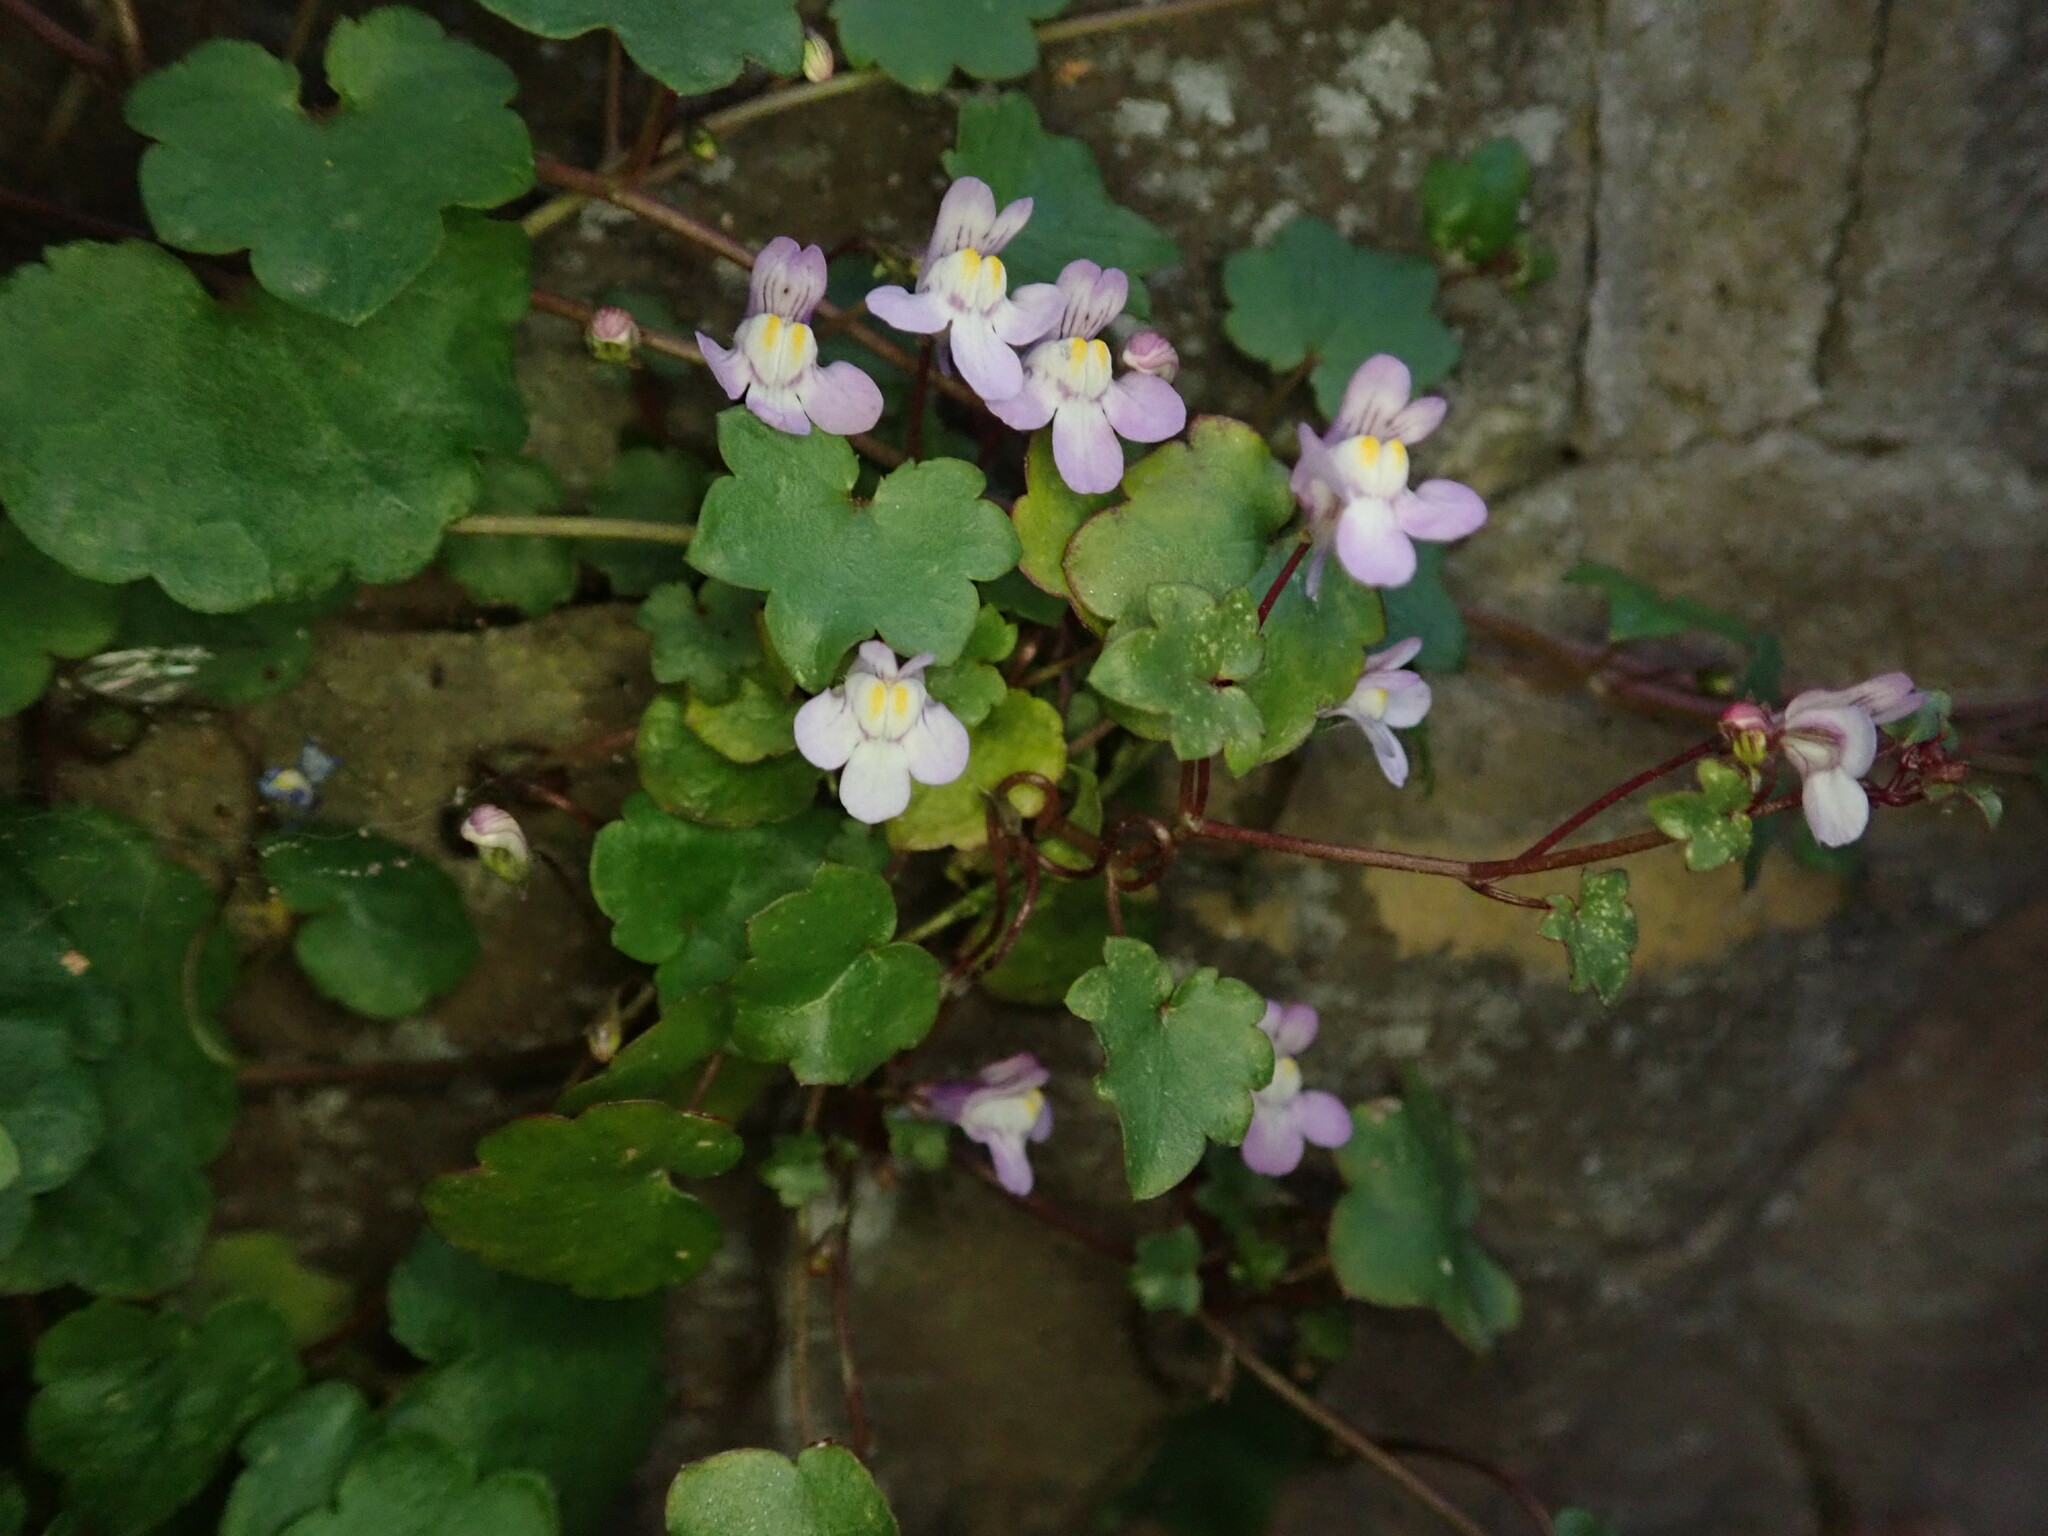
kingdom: Plantae
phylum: Tracheophyta
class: Magnoliopsida
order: Lamiales
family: Plantaginaceae
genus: Cymbalaria
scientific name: Cymbalaria muralis
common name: Ivy-leaved toadflax
